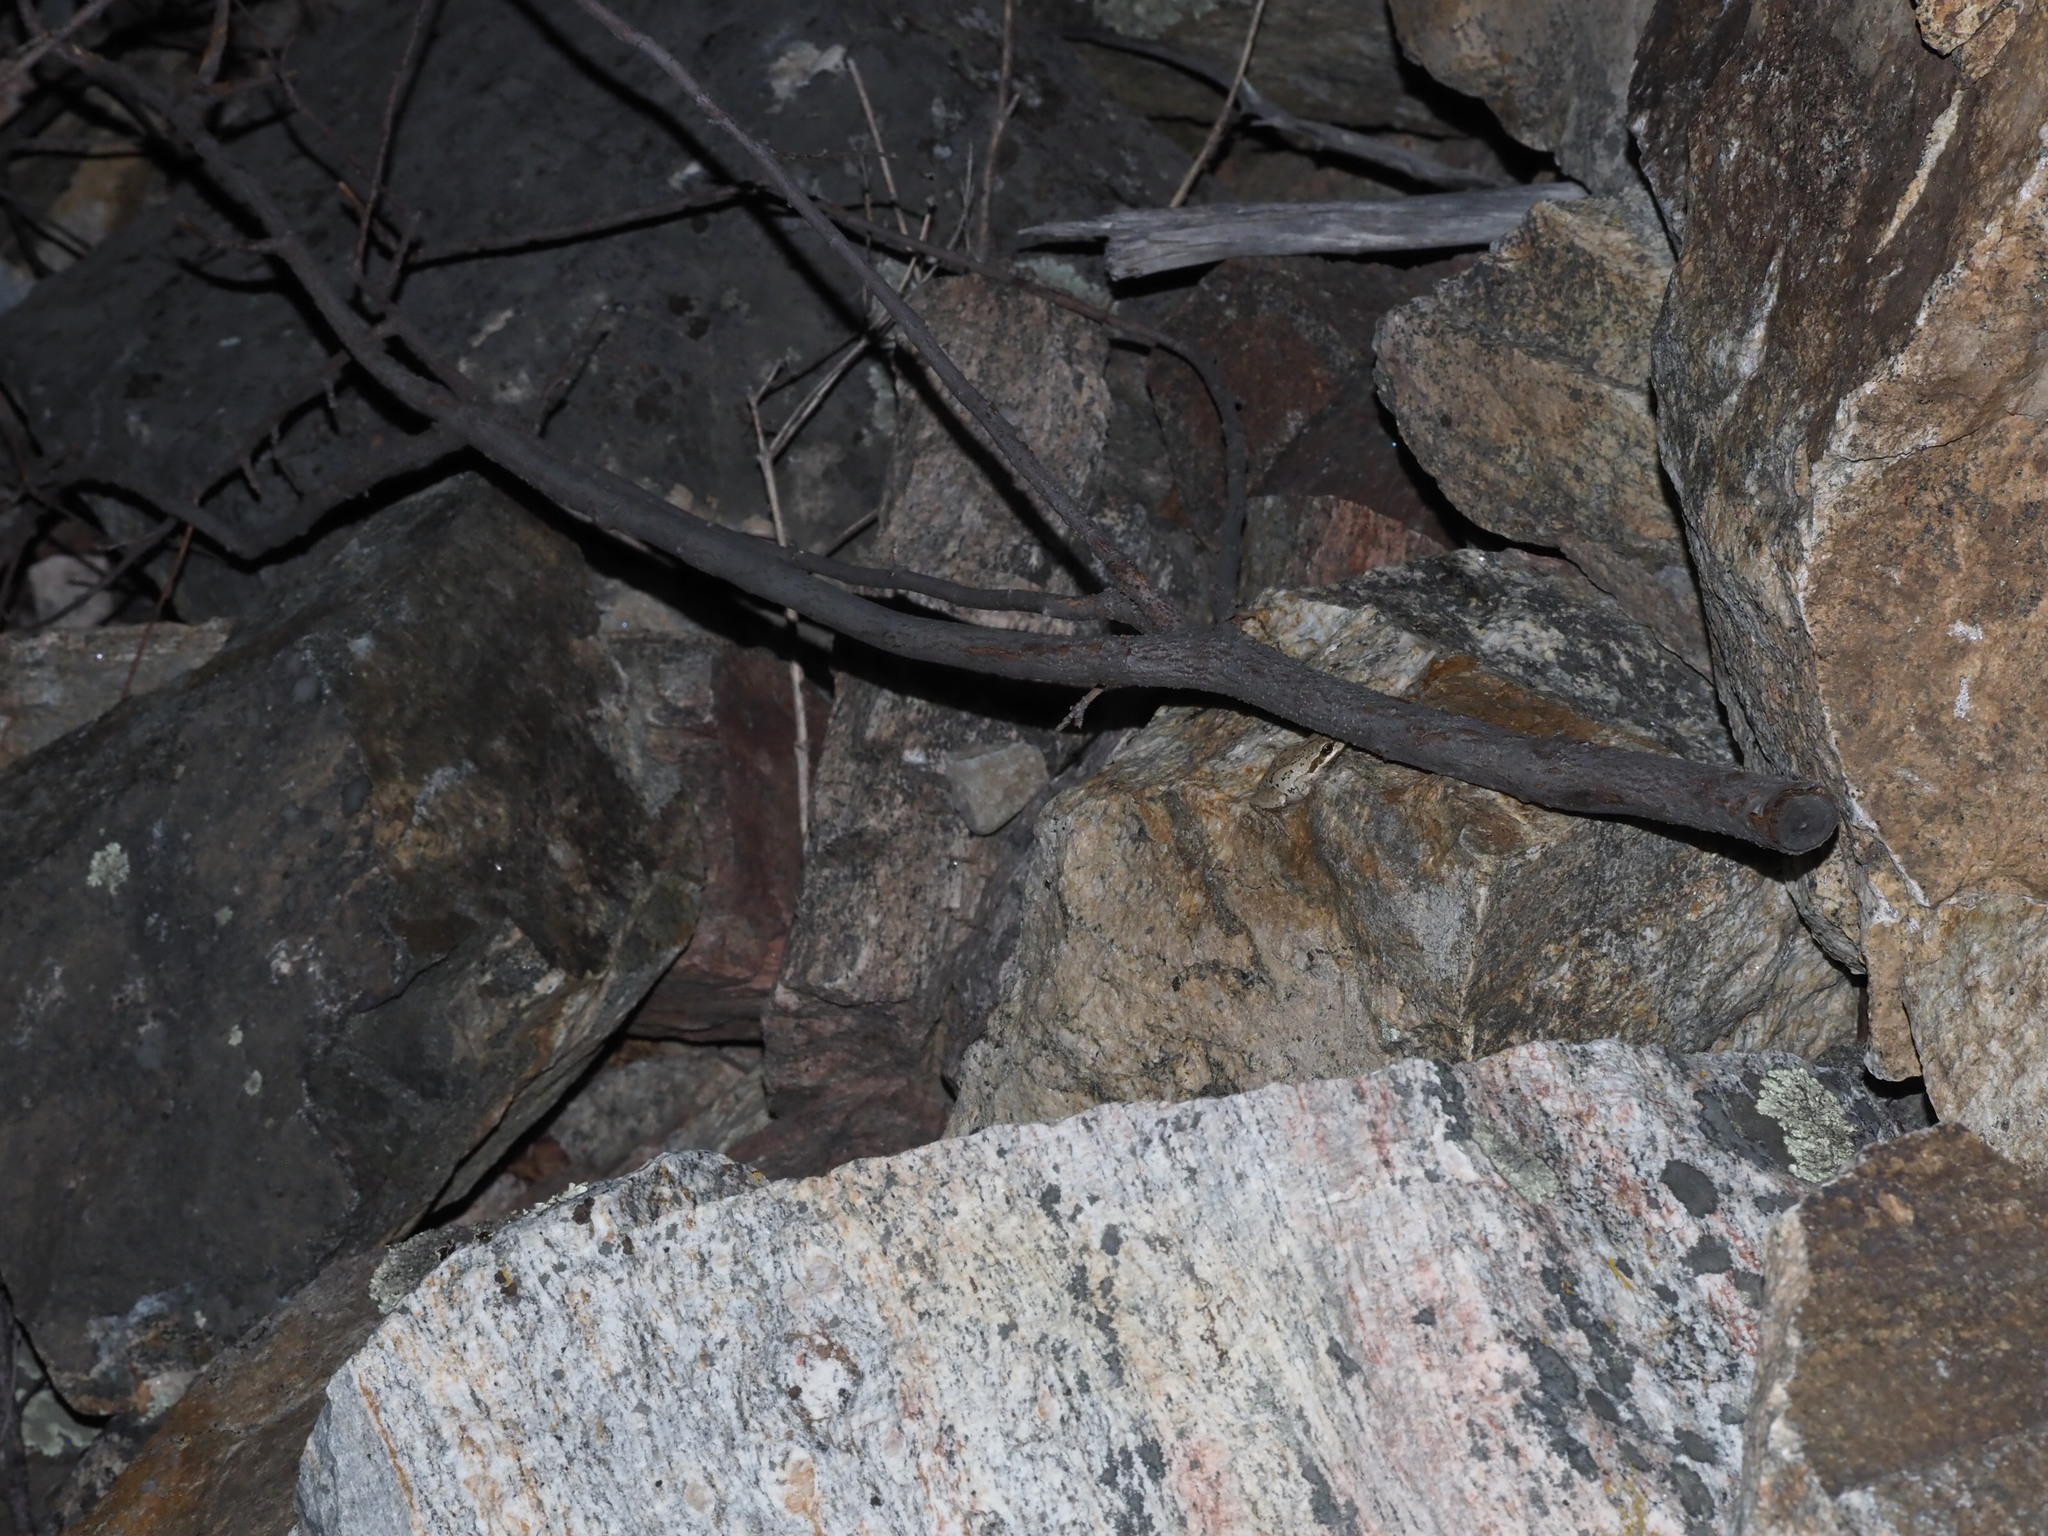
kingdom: Animalia
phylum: Chordata
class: Amphibia
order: Anura
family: Hylidae
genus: Pseudacris
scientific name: Pseudacris regilla
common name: Pacific chorus frog
